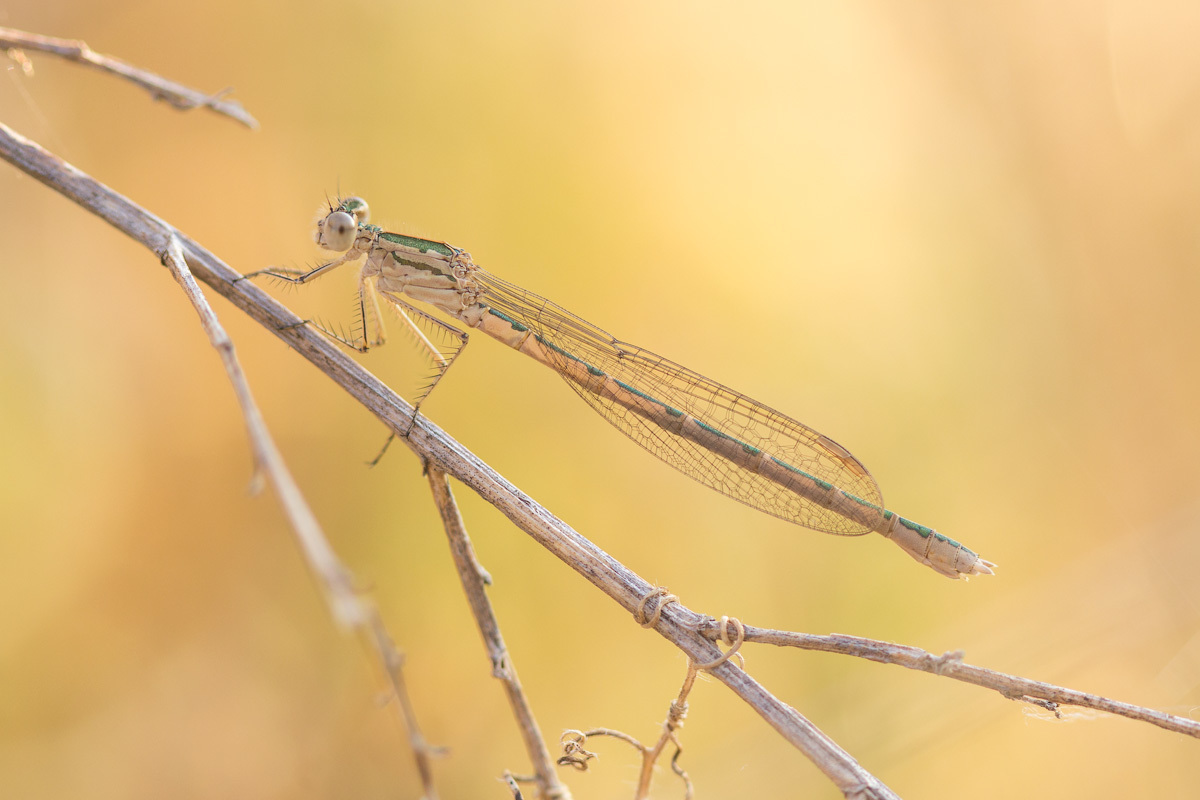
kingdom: Animalia
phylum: Arthropoda
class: Insecta
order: Odonata
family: Lestidae
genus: Sympecma
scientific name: Sympecma paedisca
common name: Siberian winter damsel
